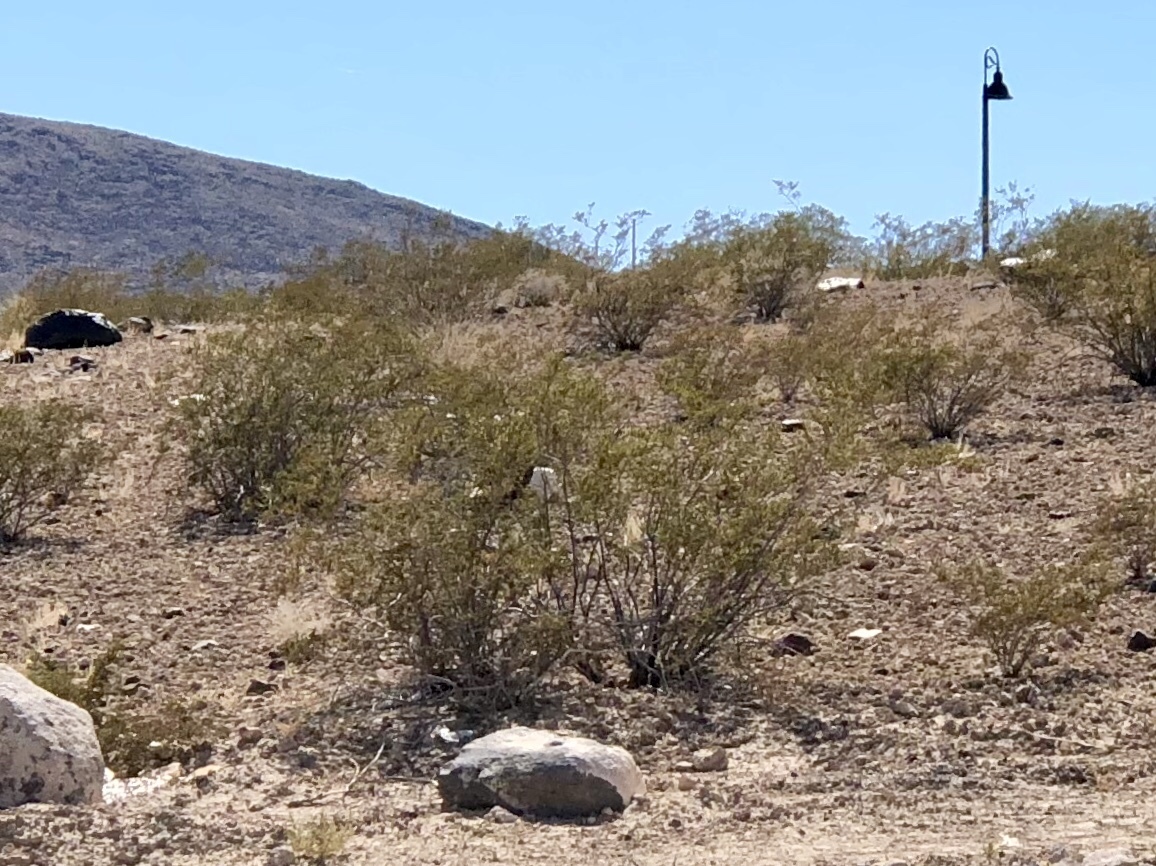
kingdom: Plantae
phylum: Tracheophyta
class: Magnoliopsida
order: Zygophyllales
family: Zygophyllaceae
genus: Larrea
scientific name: Larrea tridentata
